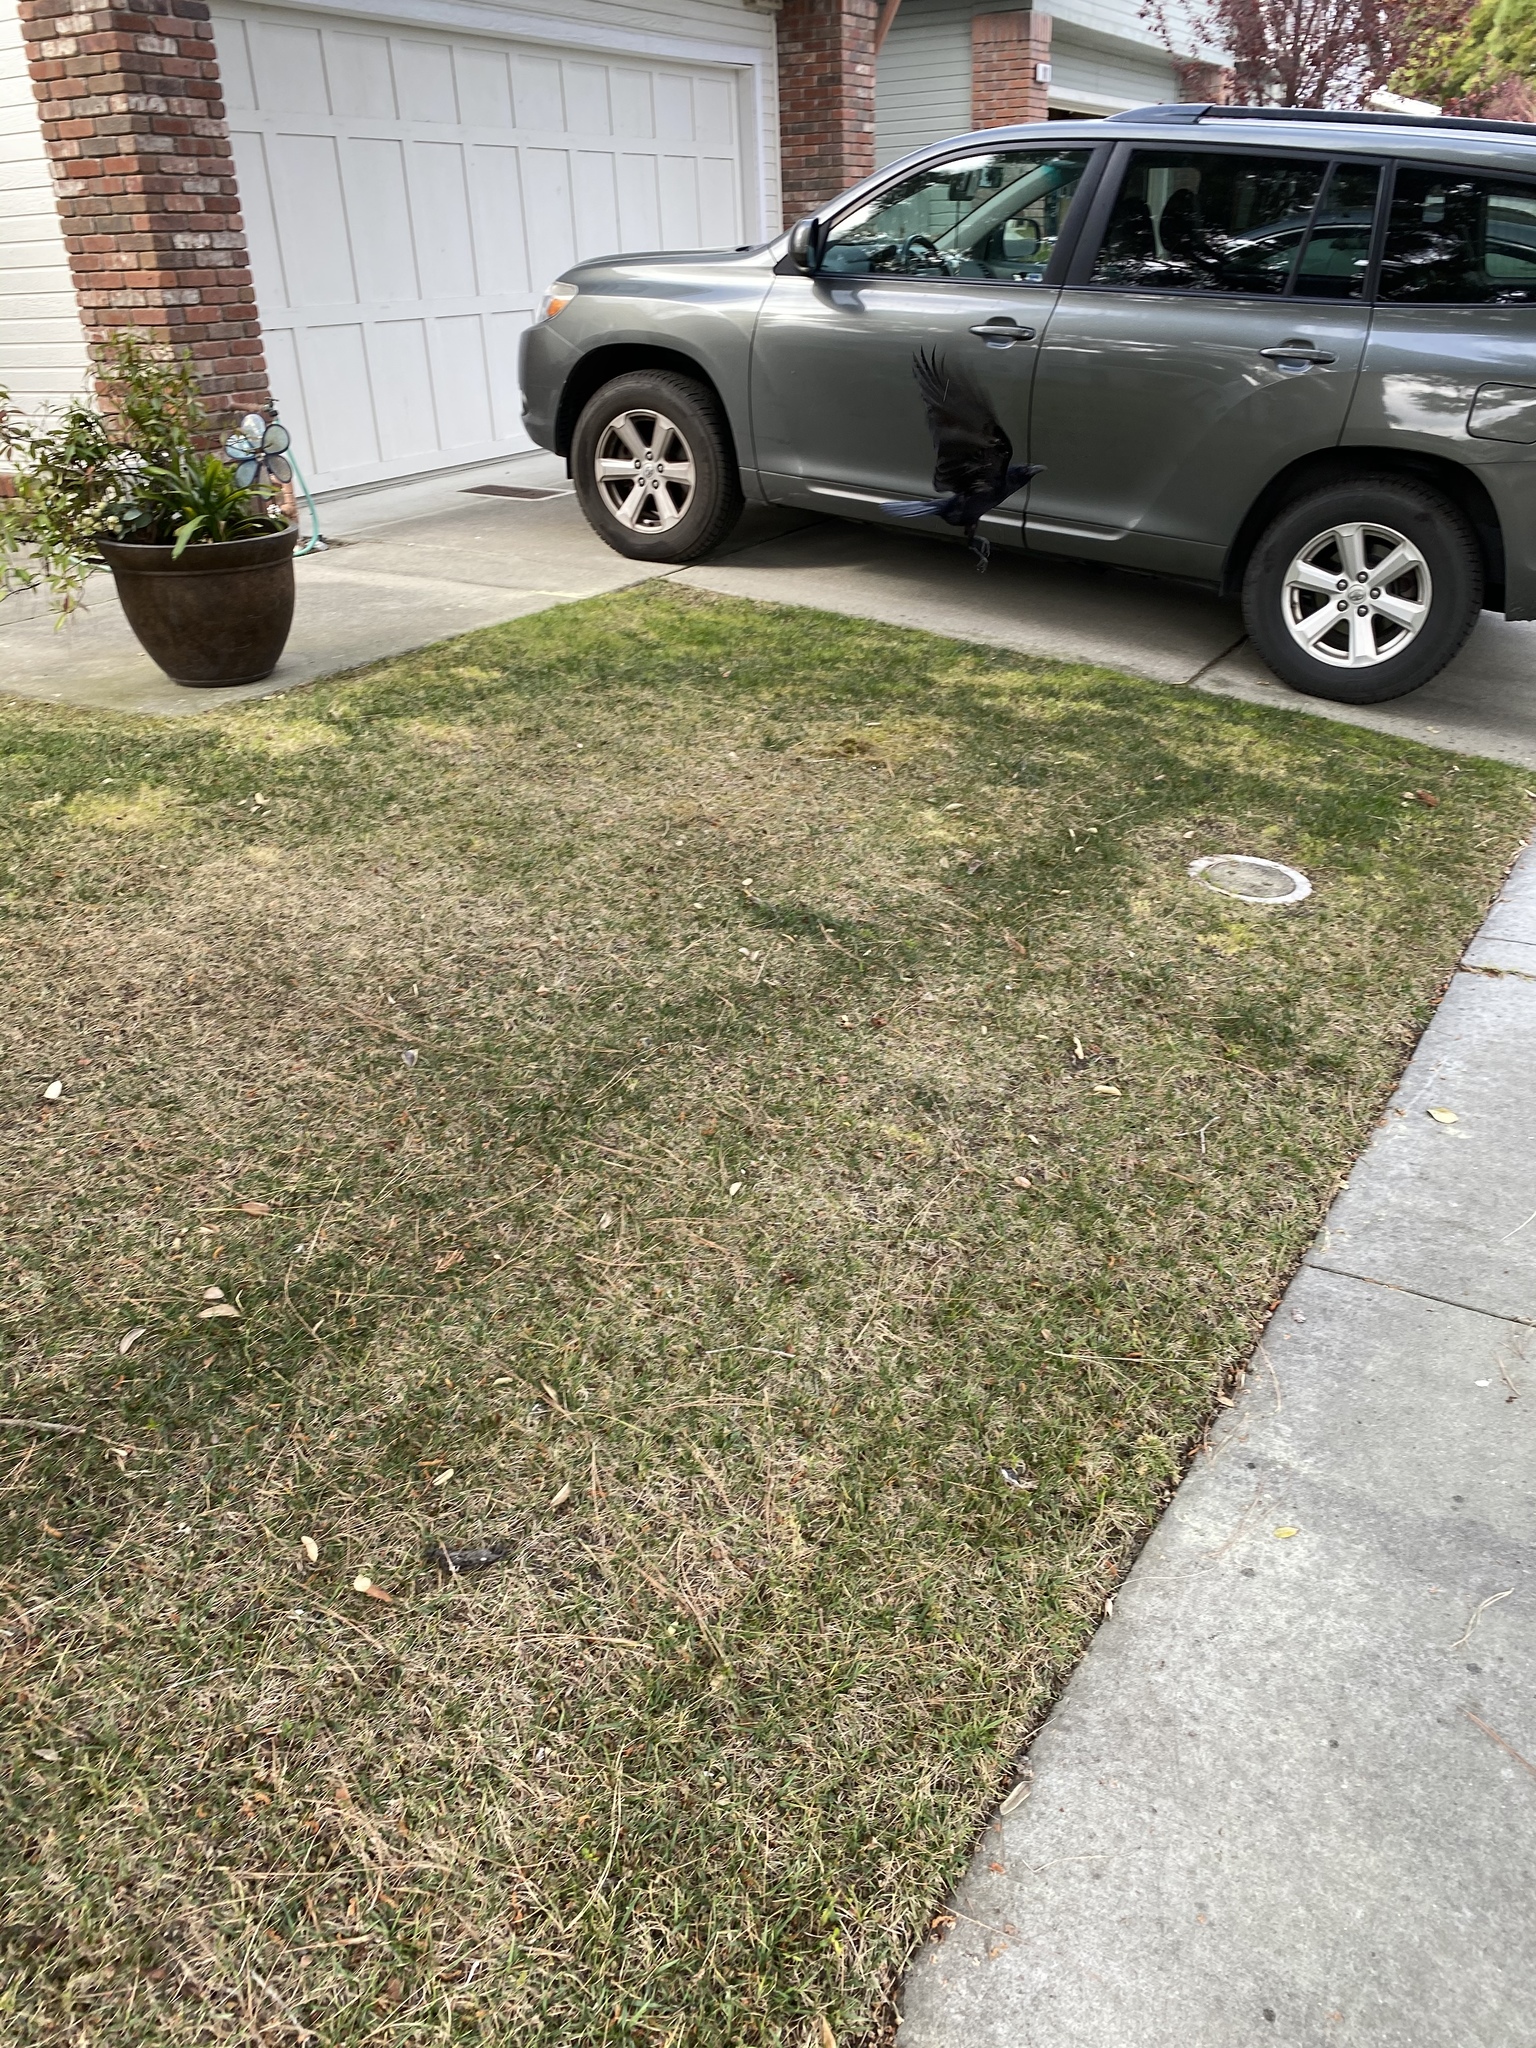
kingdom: Animalia
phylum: Chordata
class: Aves
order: Passeriformes
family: Corvidae
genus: Corvus
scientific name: Corvus brachyrhynchos
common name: American crow
